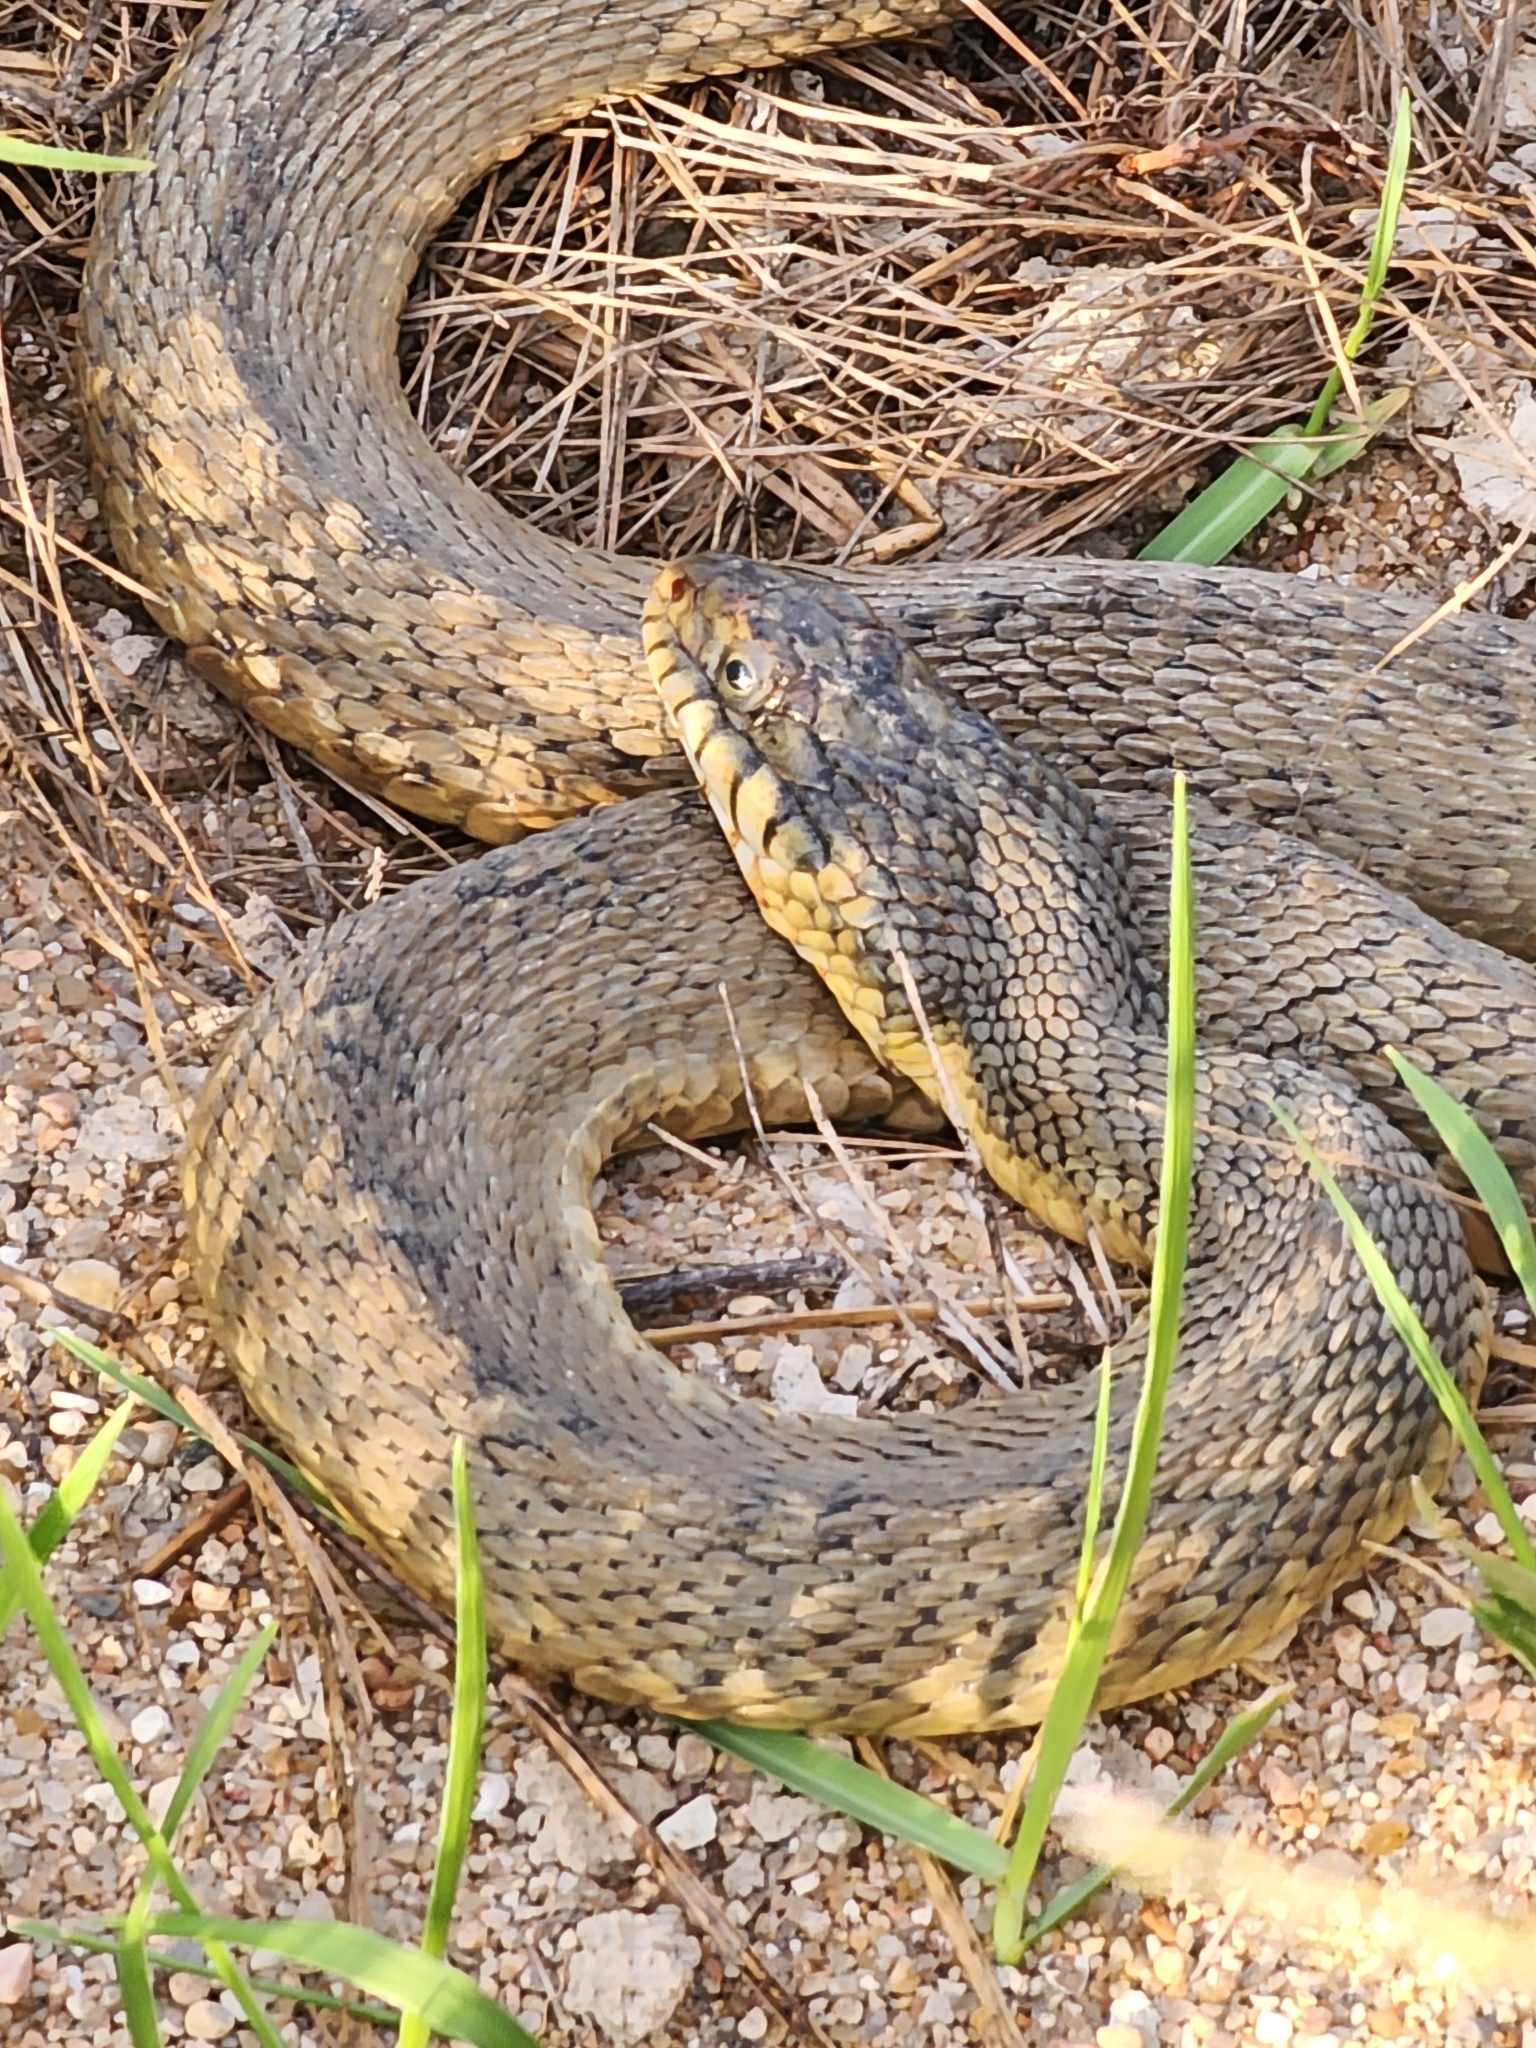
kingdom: Animalia
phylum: Chordata
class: Squamata
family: Colubridae
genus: Nerodia
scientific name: Nerodia erythrogaster
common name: Plainbelly water snake
